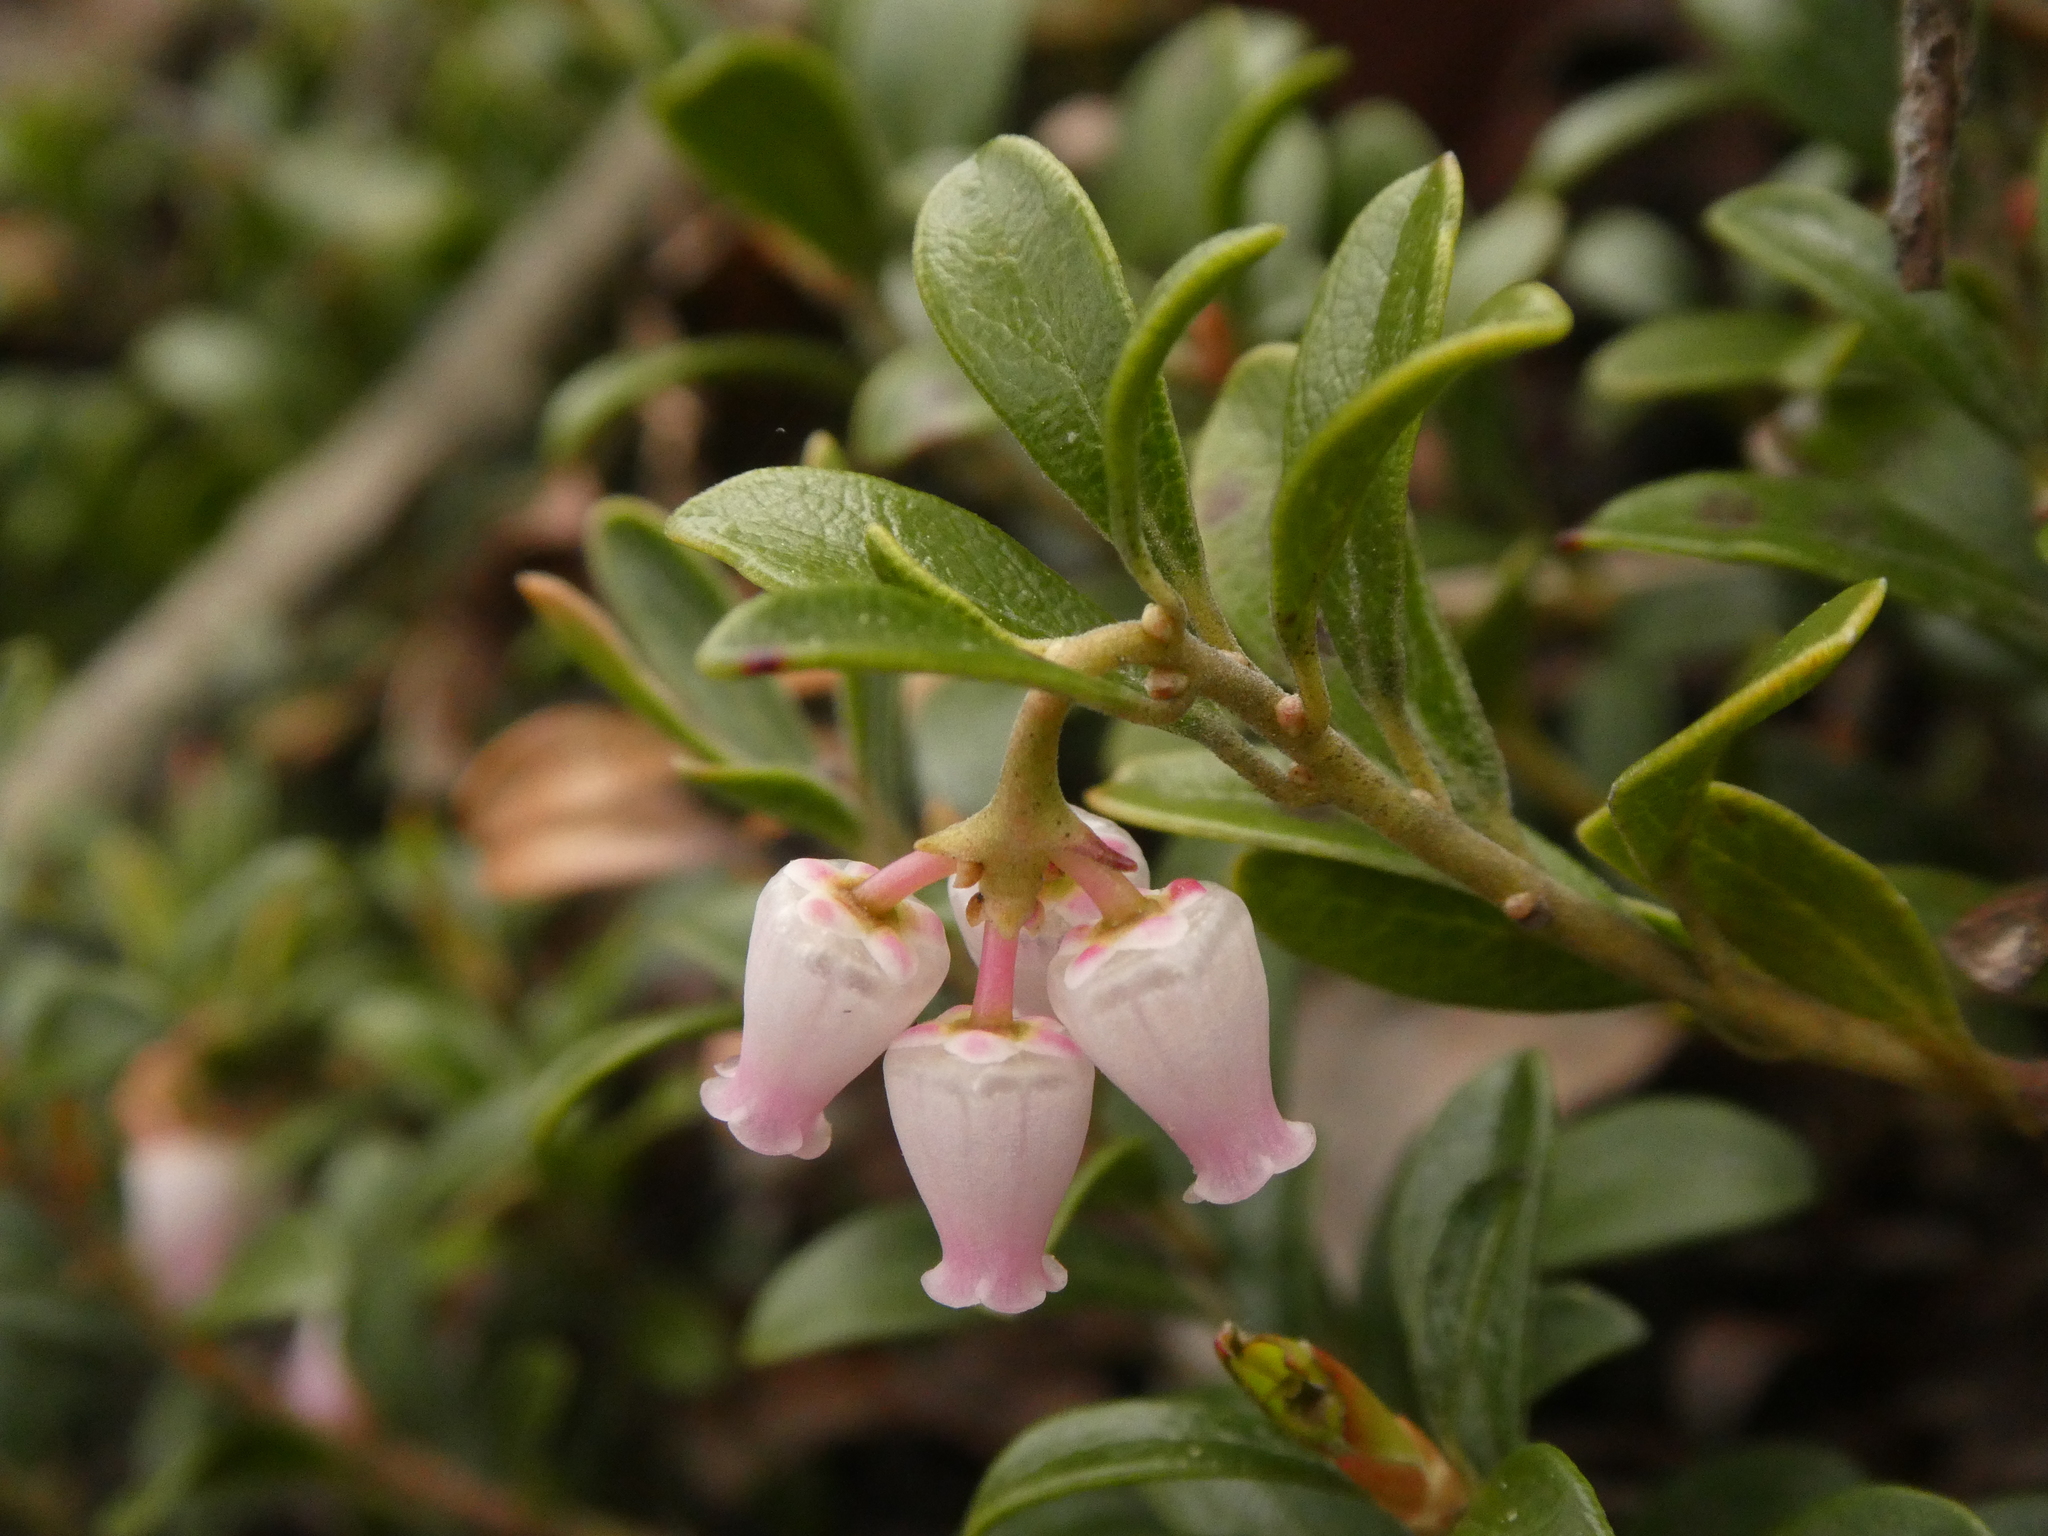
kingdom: Plantae
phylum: Tracheophyta
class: Magnoliopsida
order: Ericales
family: Ericaceae
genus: Arctostaphylos
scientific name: Arctostaphylos uva-ursi
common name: Bearberry
